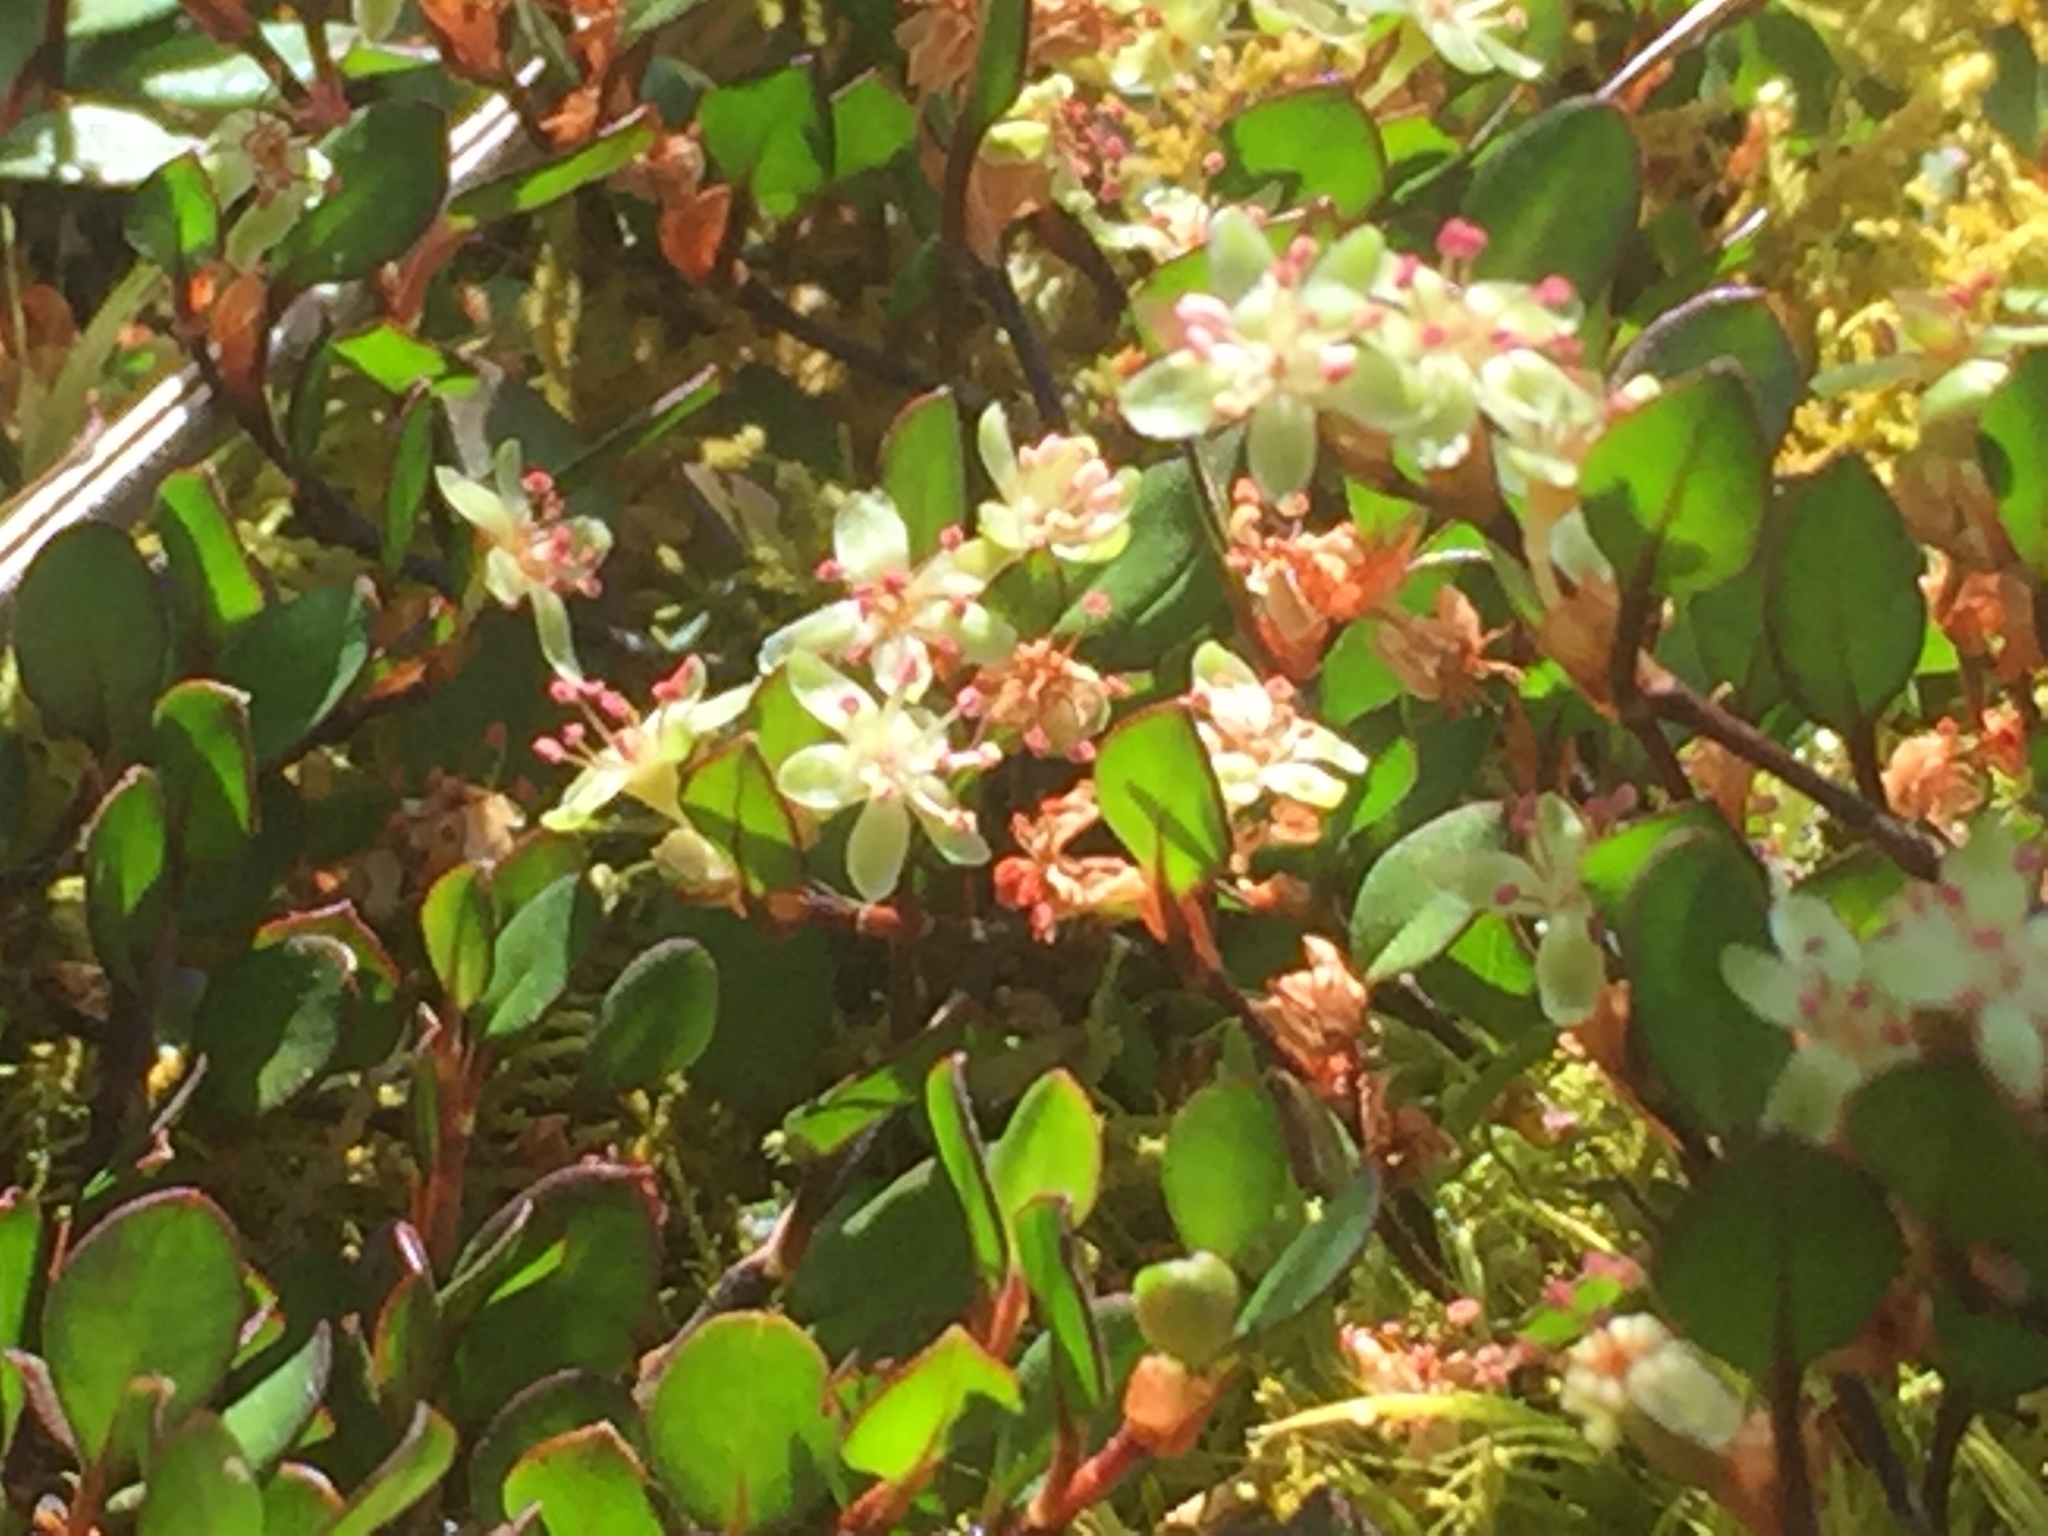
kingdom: Plantae
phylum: Tracheophyta
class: Magnoliopsida
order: Caryophyllales
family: Polygonaceae
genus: Muehlenbeckia
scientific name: Muehlenbeckia axillaris
